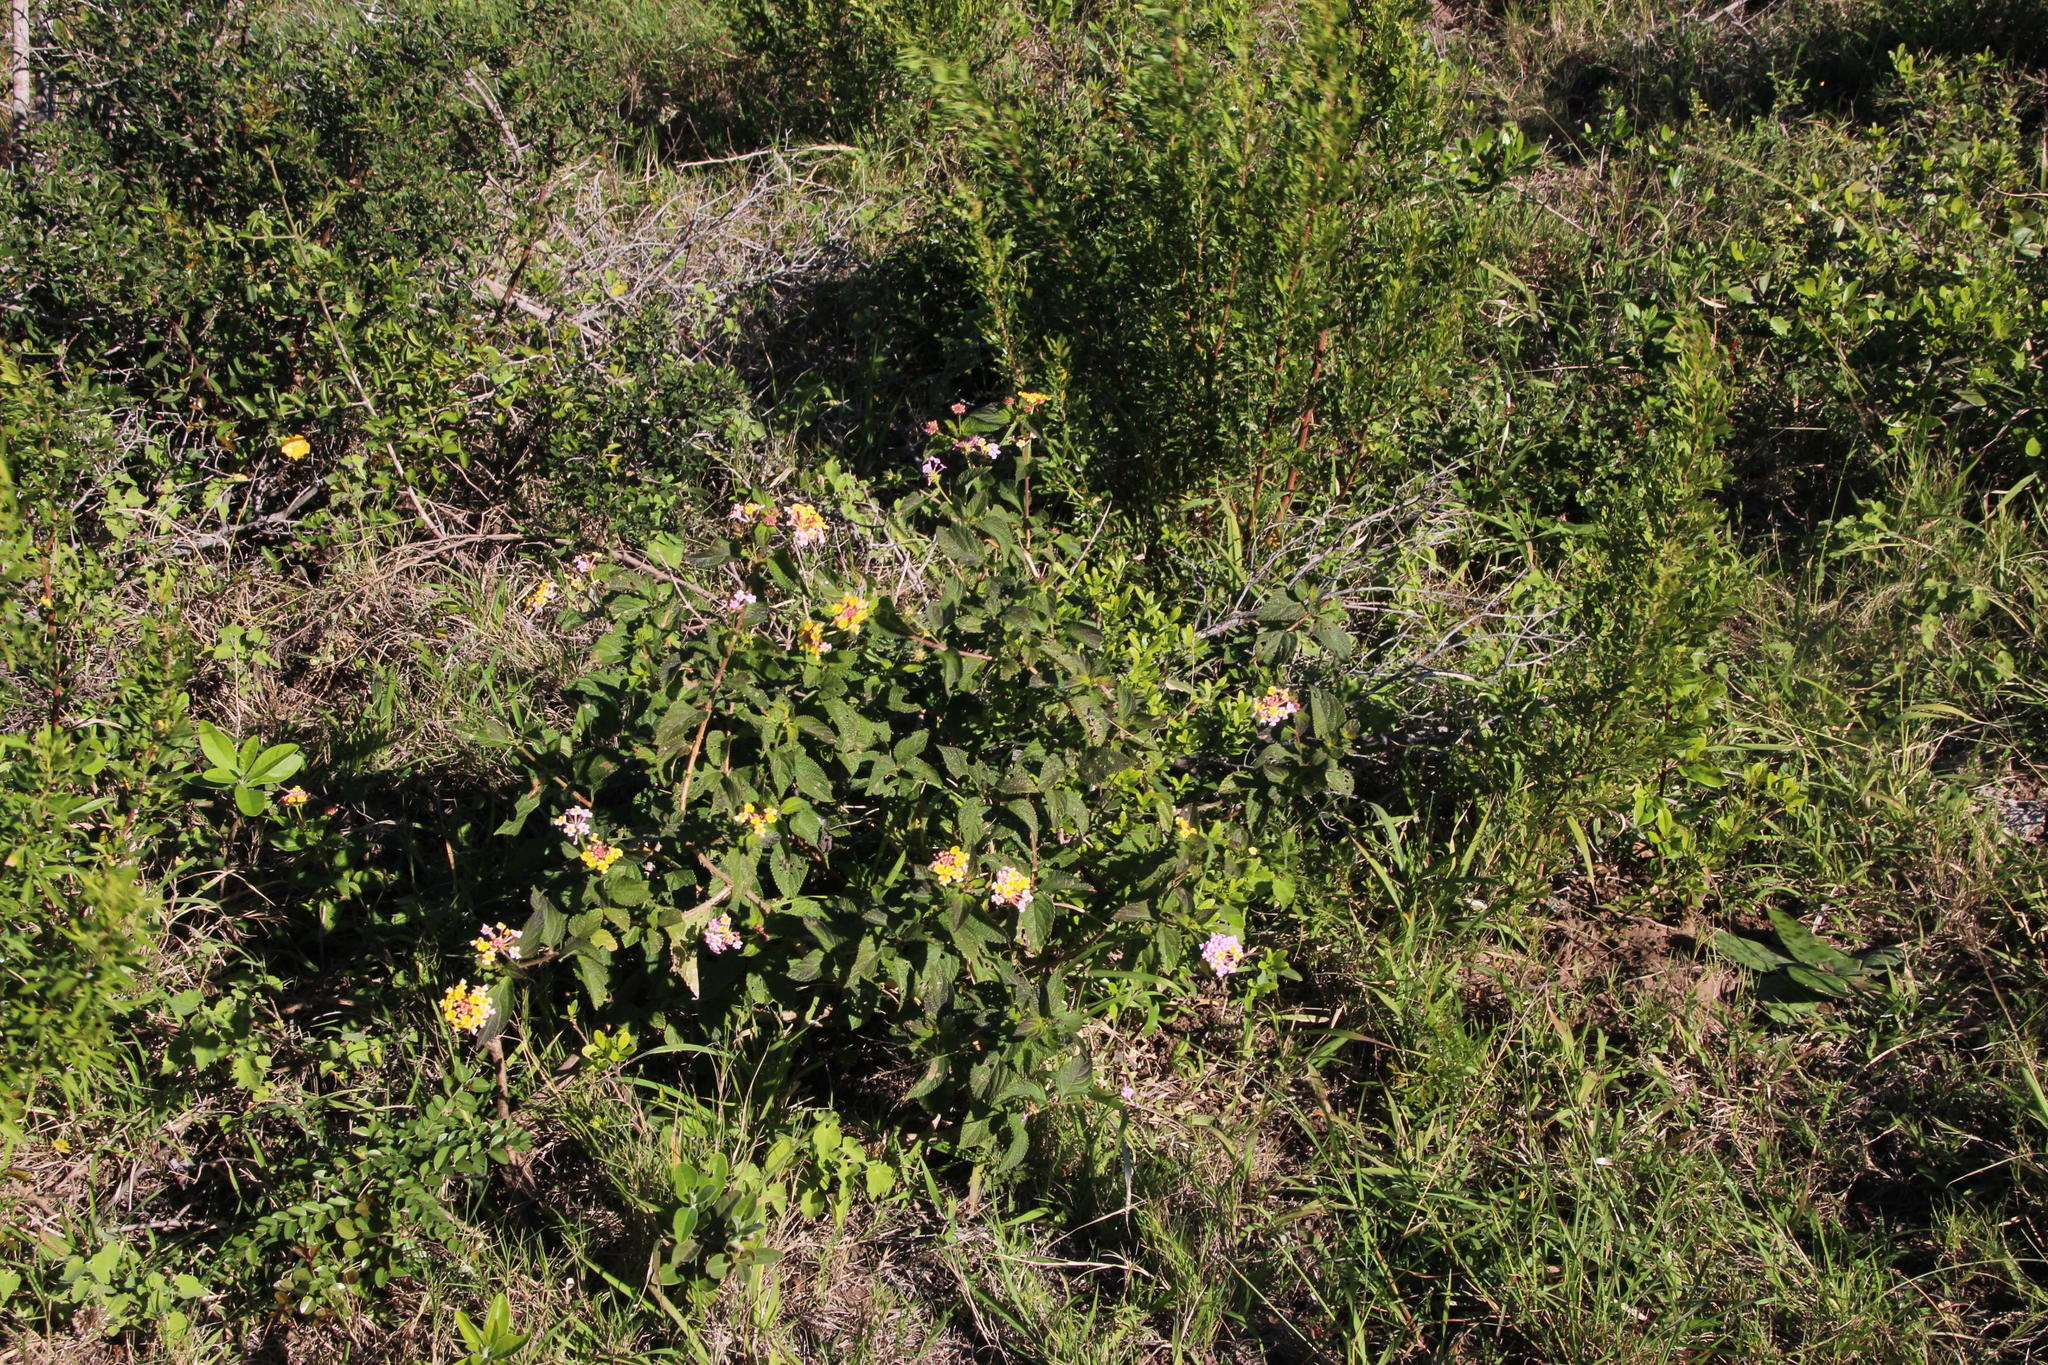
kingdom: Plantae
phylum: Tracheophyta
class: Magnoliopsida
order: Lamiales
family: Verbenaceae
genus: Lantana
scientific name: Lantana camara
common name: Lantana
